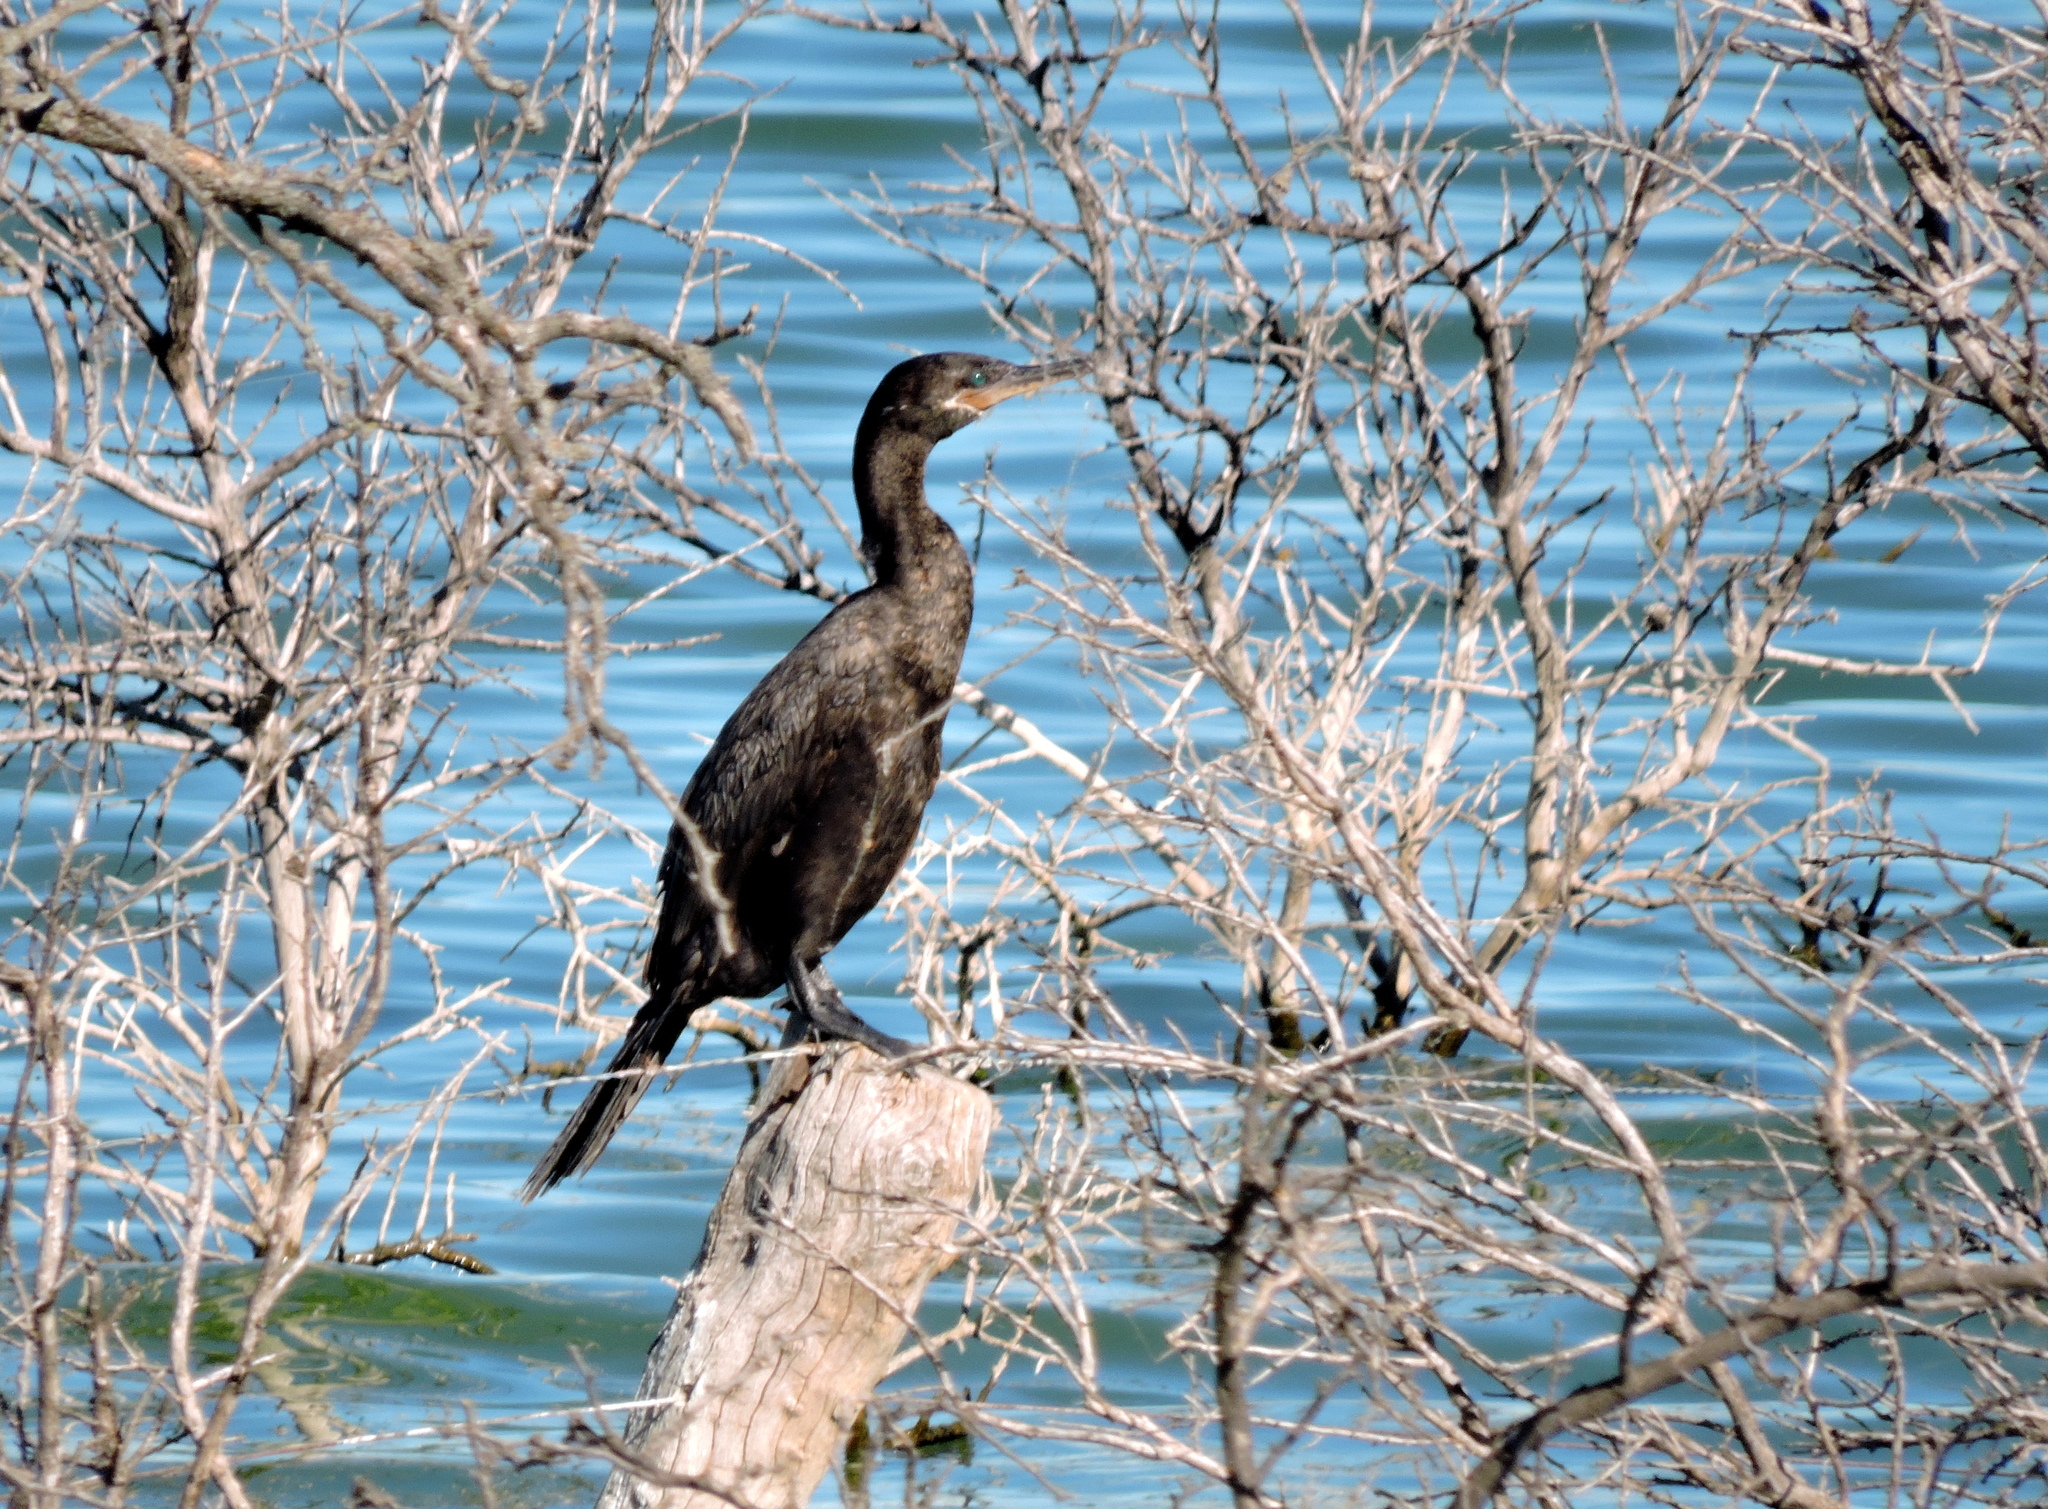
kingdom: Animalia
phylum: Chordata
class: Aves
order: Suliformes
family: Phalacrocoracidae
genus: Phalacrocorax
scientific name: Phalacrocorax brasilianus
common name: Neotropic cormorant
